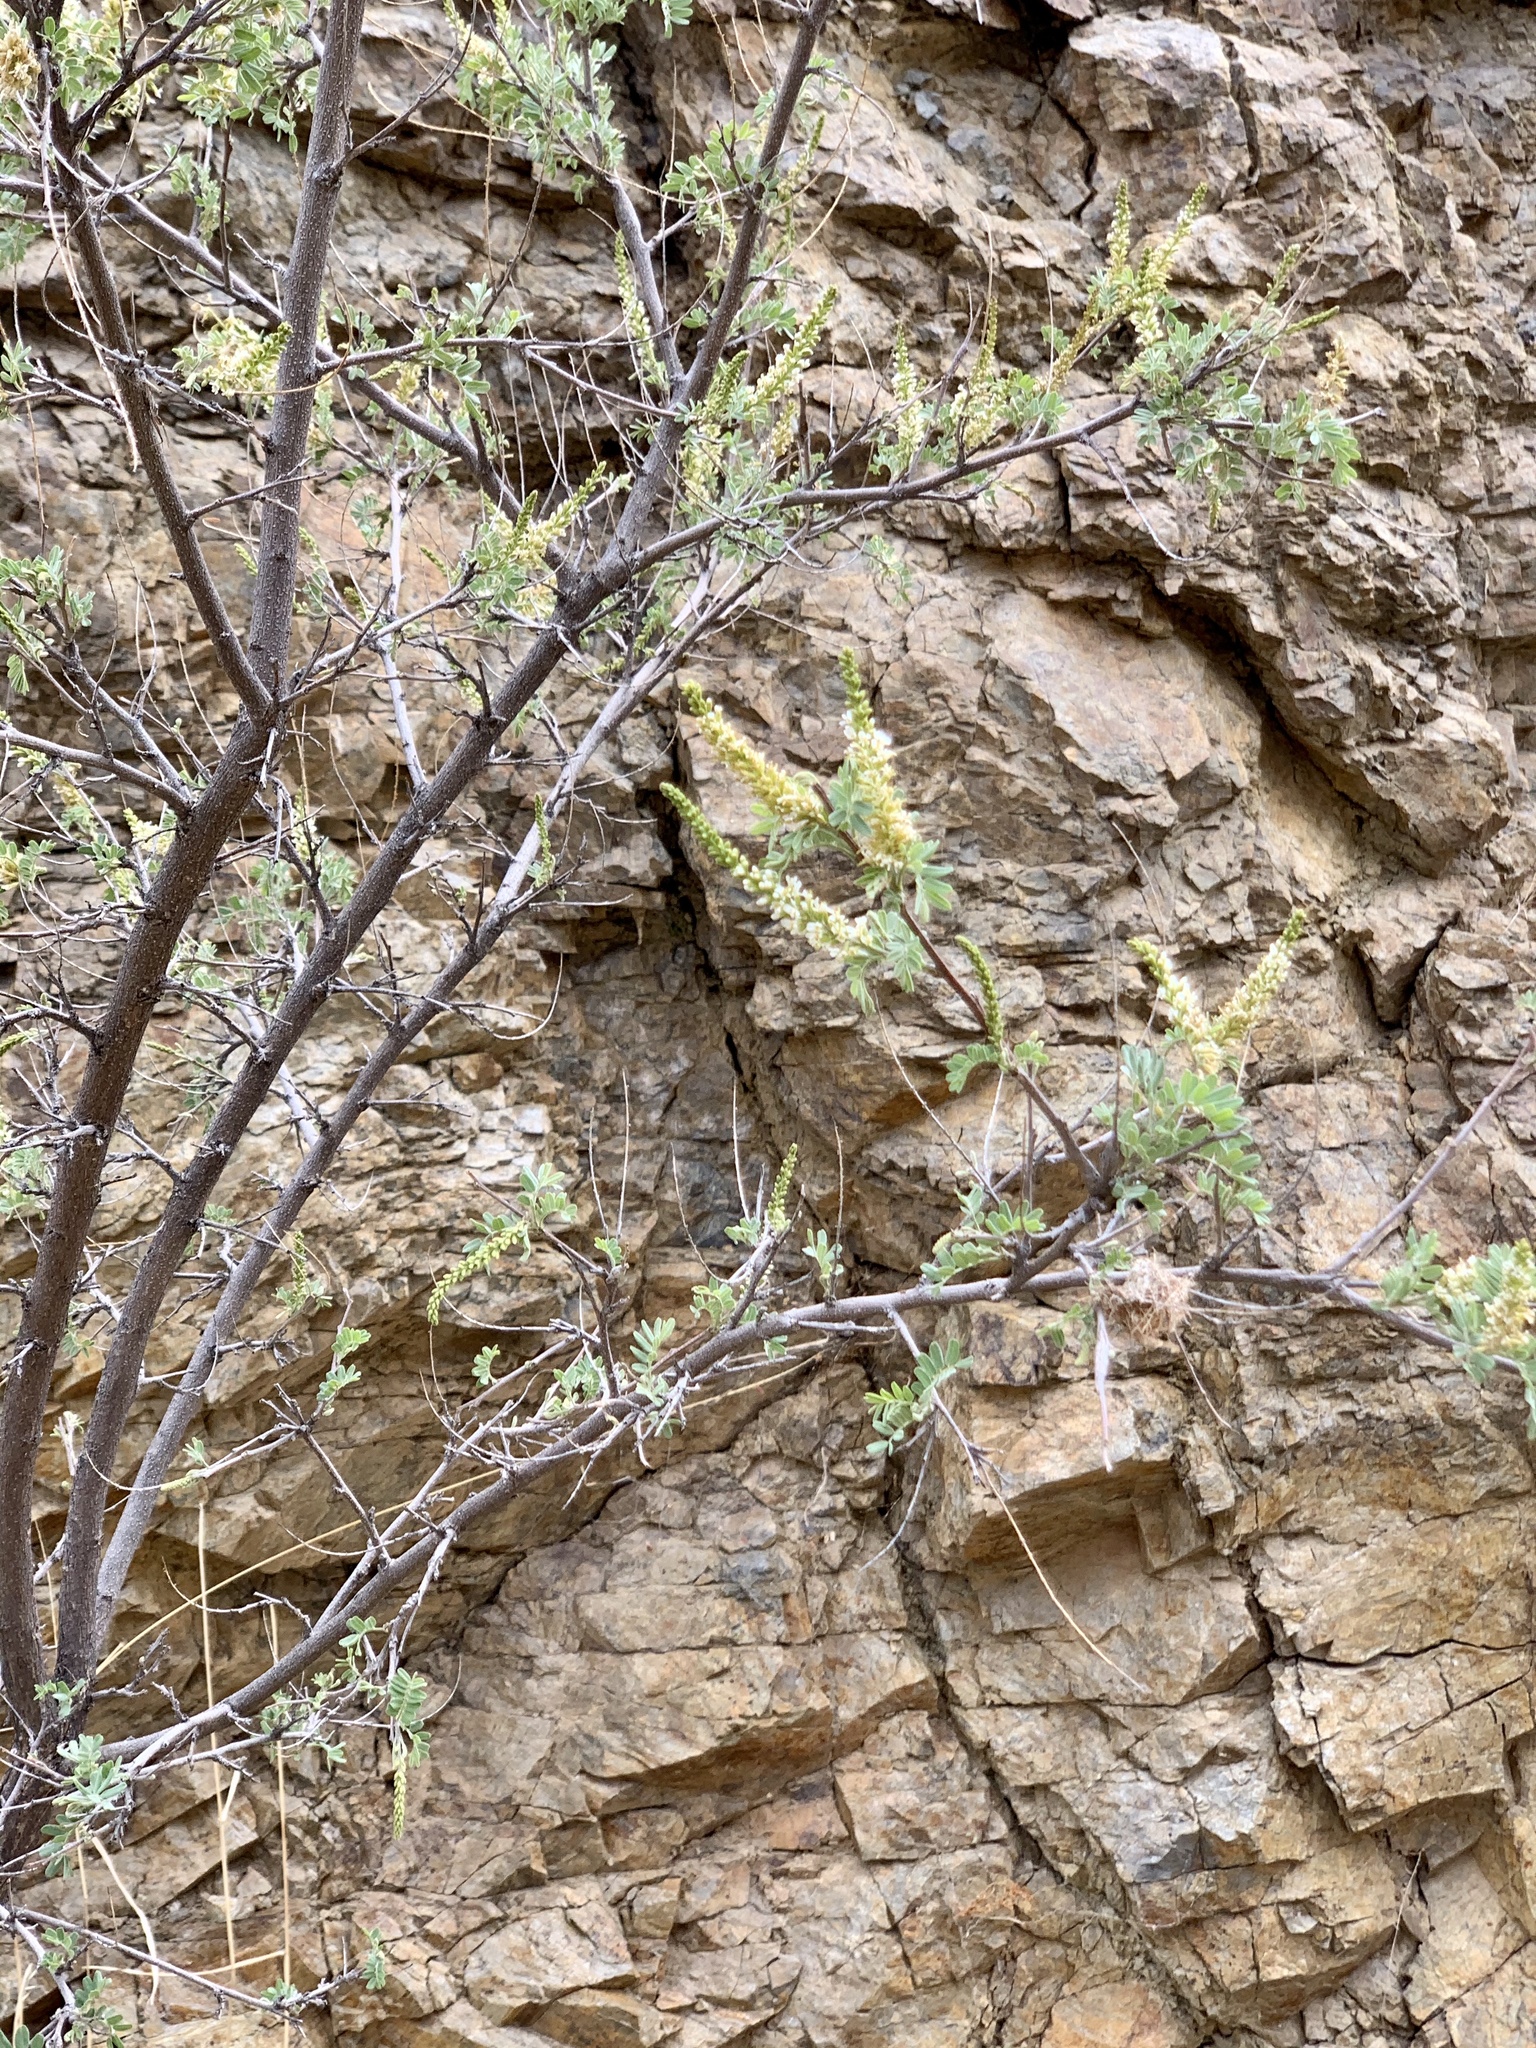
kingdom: Plantae
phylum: Tracheophyta
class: Magnoliopsida
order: Fabales
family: Fabaceae
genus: Eysenhardtia
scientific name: Eysenhardtia orthocarpa
